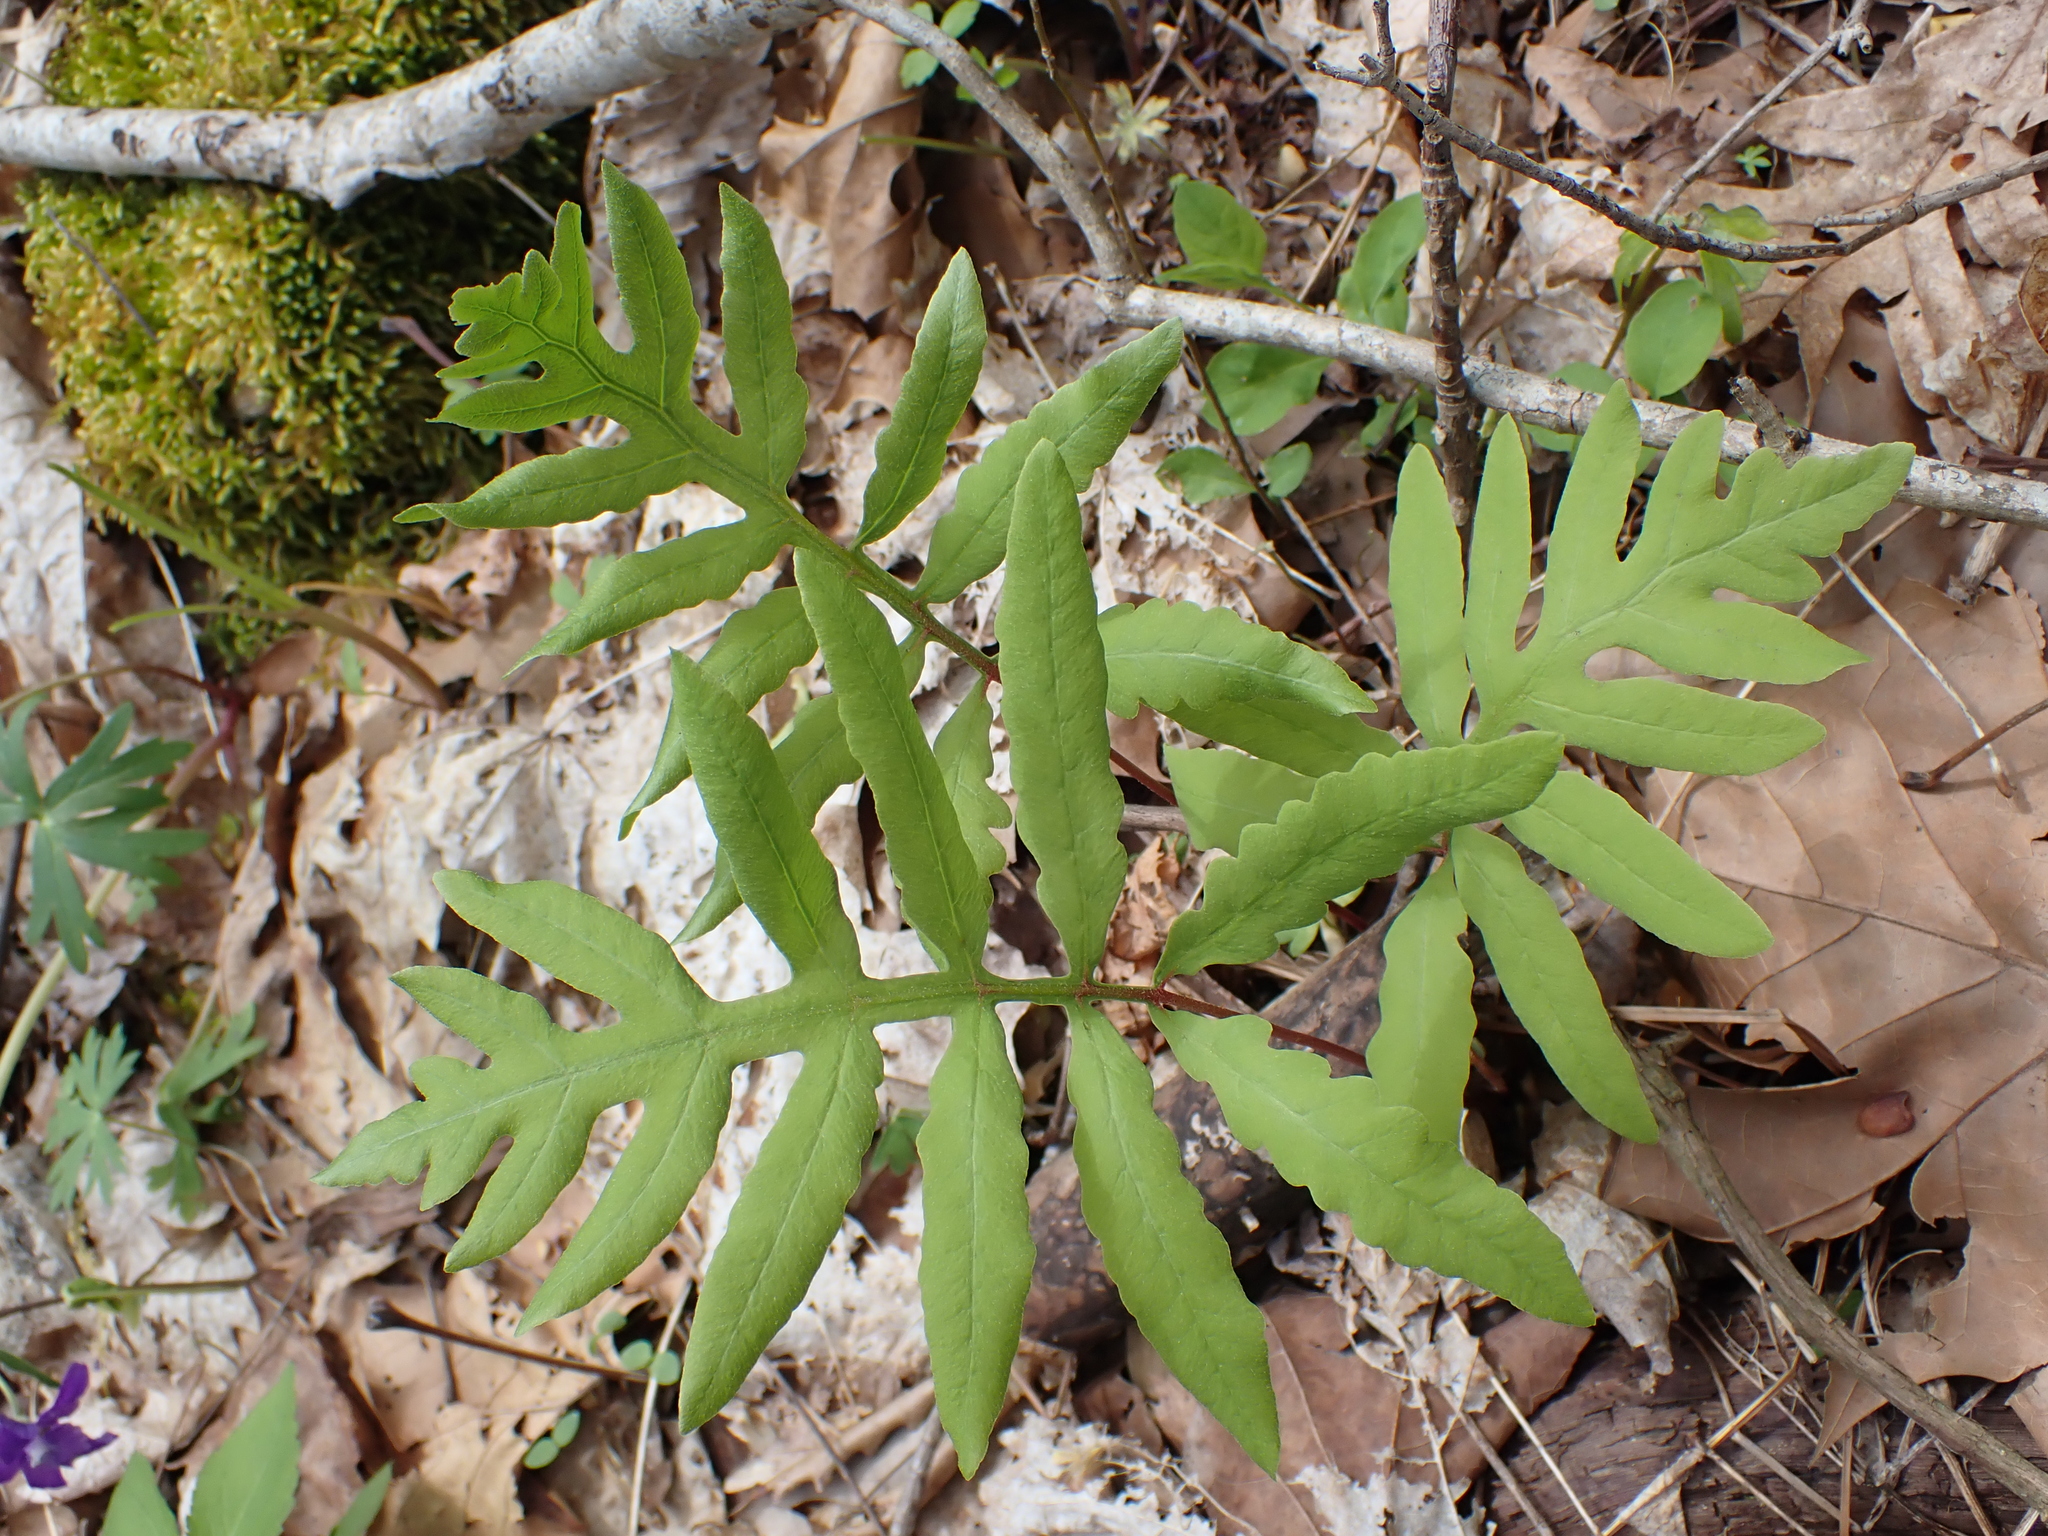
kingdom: Plantae
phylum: Tracheophyta
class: Polypodiopsida
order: Polypodiales
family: Onocleaceae
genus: Onoclea
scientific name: Onoclea sensibilis
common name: Sensitive fern
